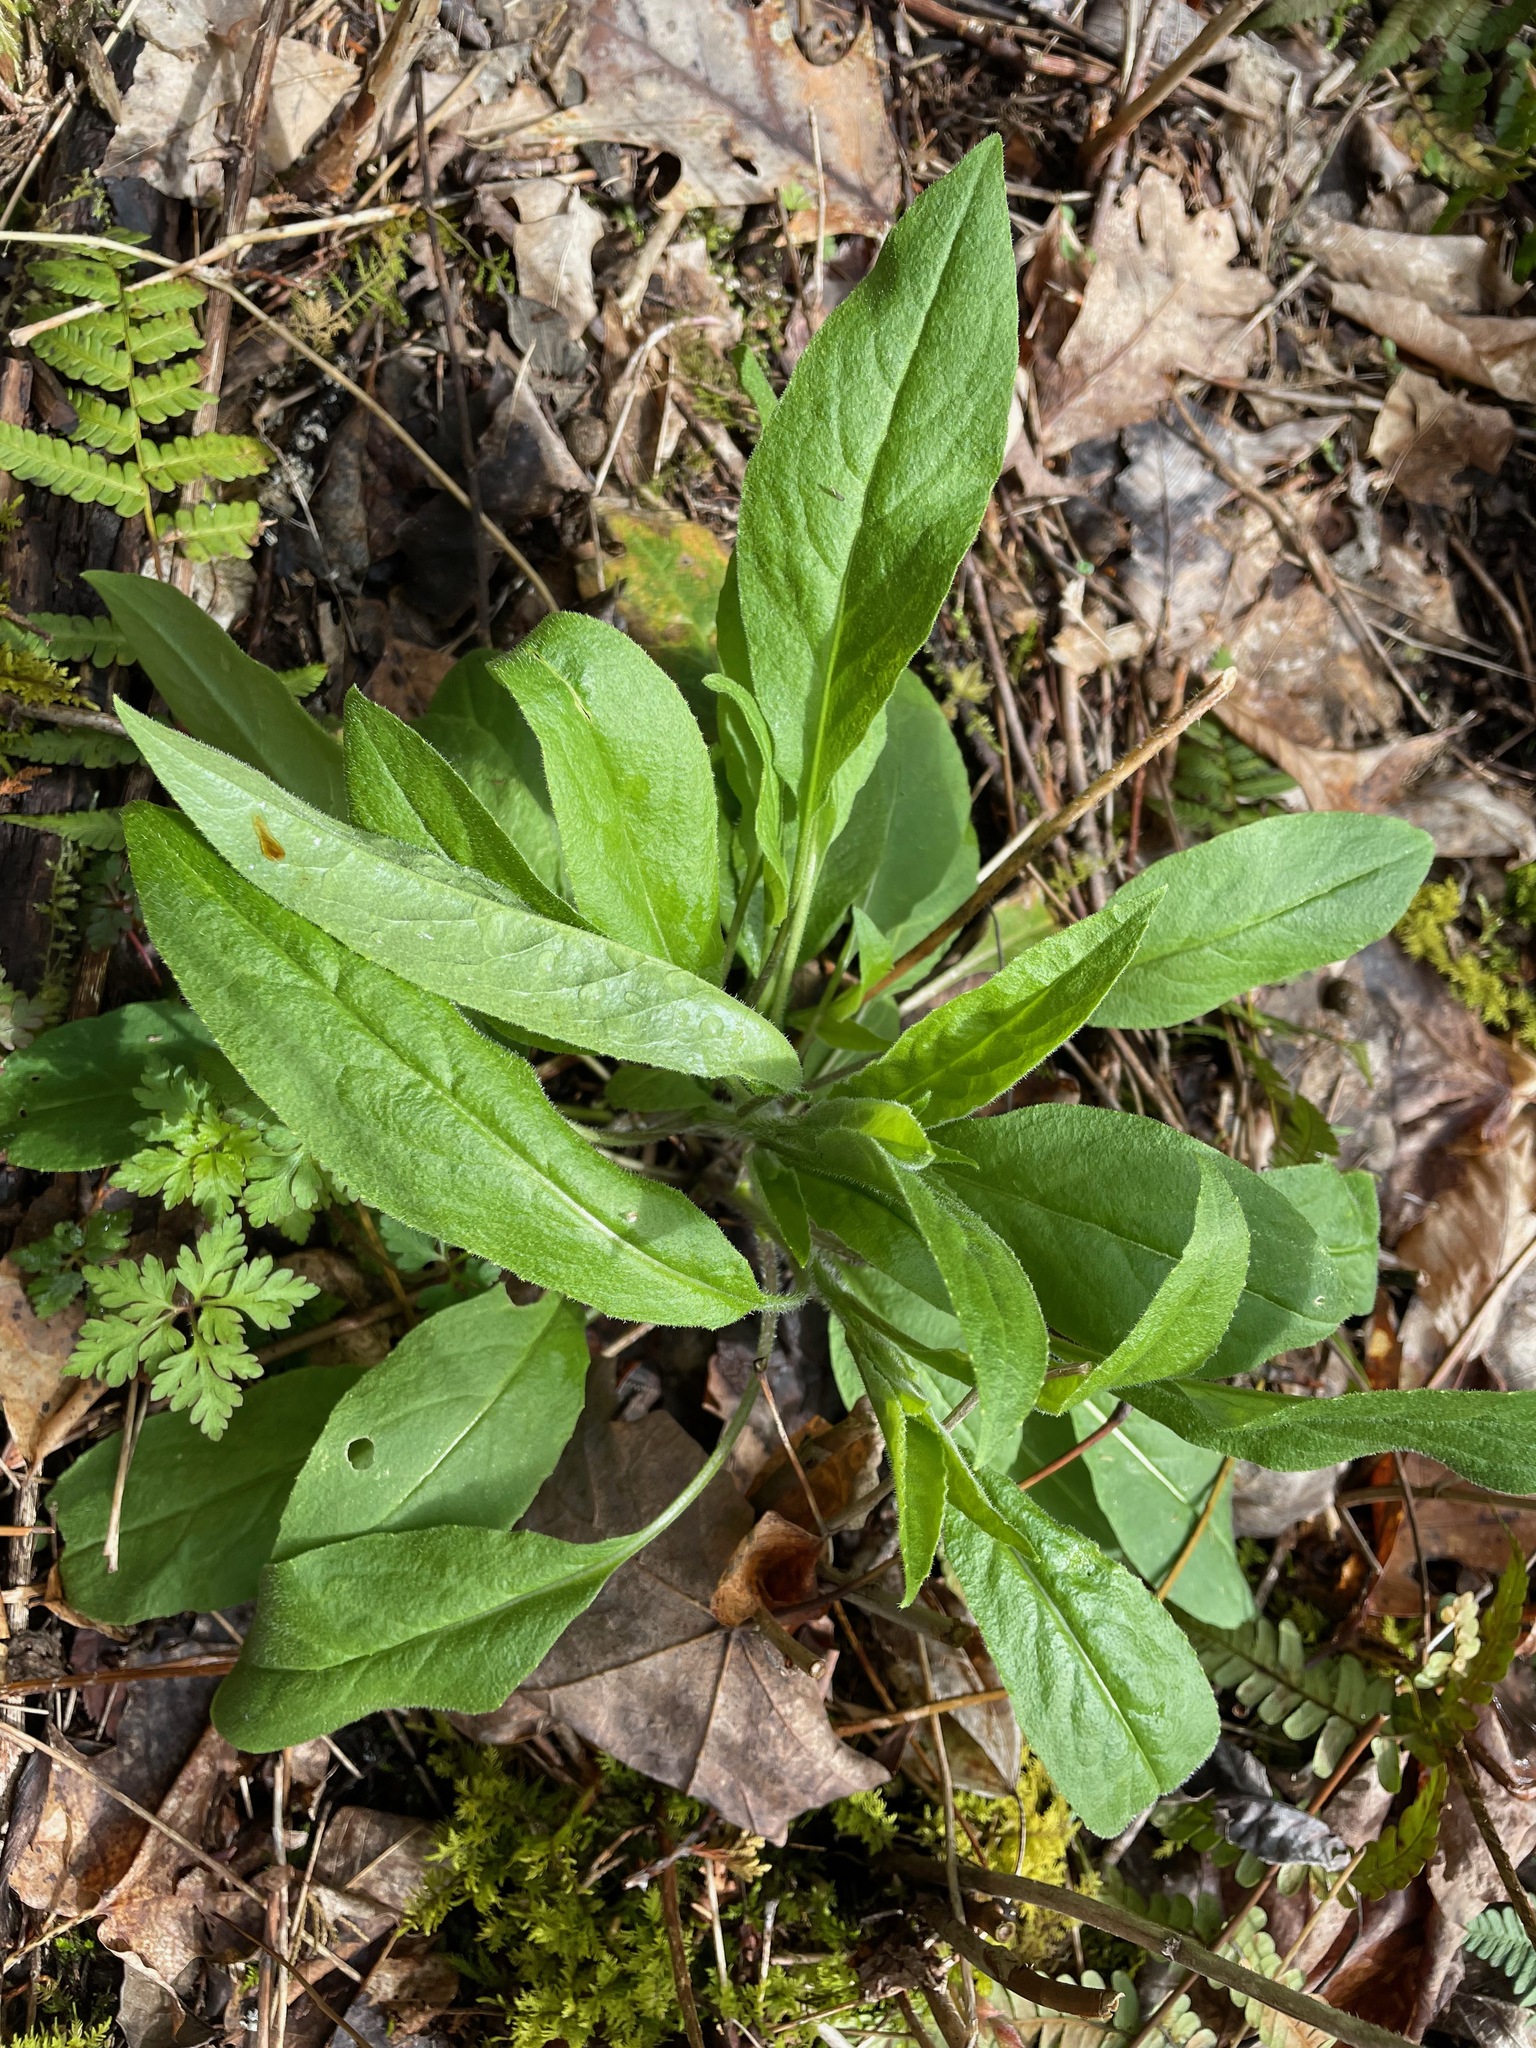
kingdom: Plantae
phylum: Tracheophyta
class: Magnoliopsida
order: Brassicales
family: Brassicaceae
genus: Hesperis
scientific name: Hesperis matronalis
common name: Dame's-violet
